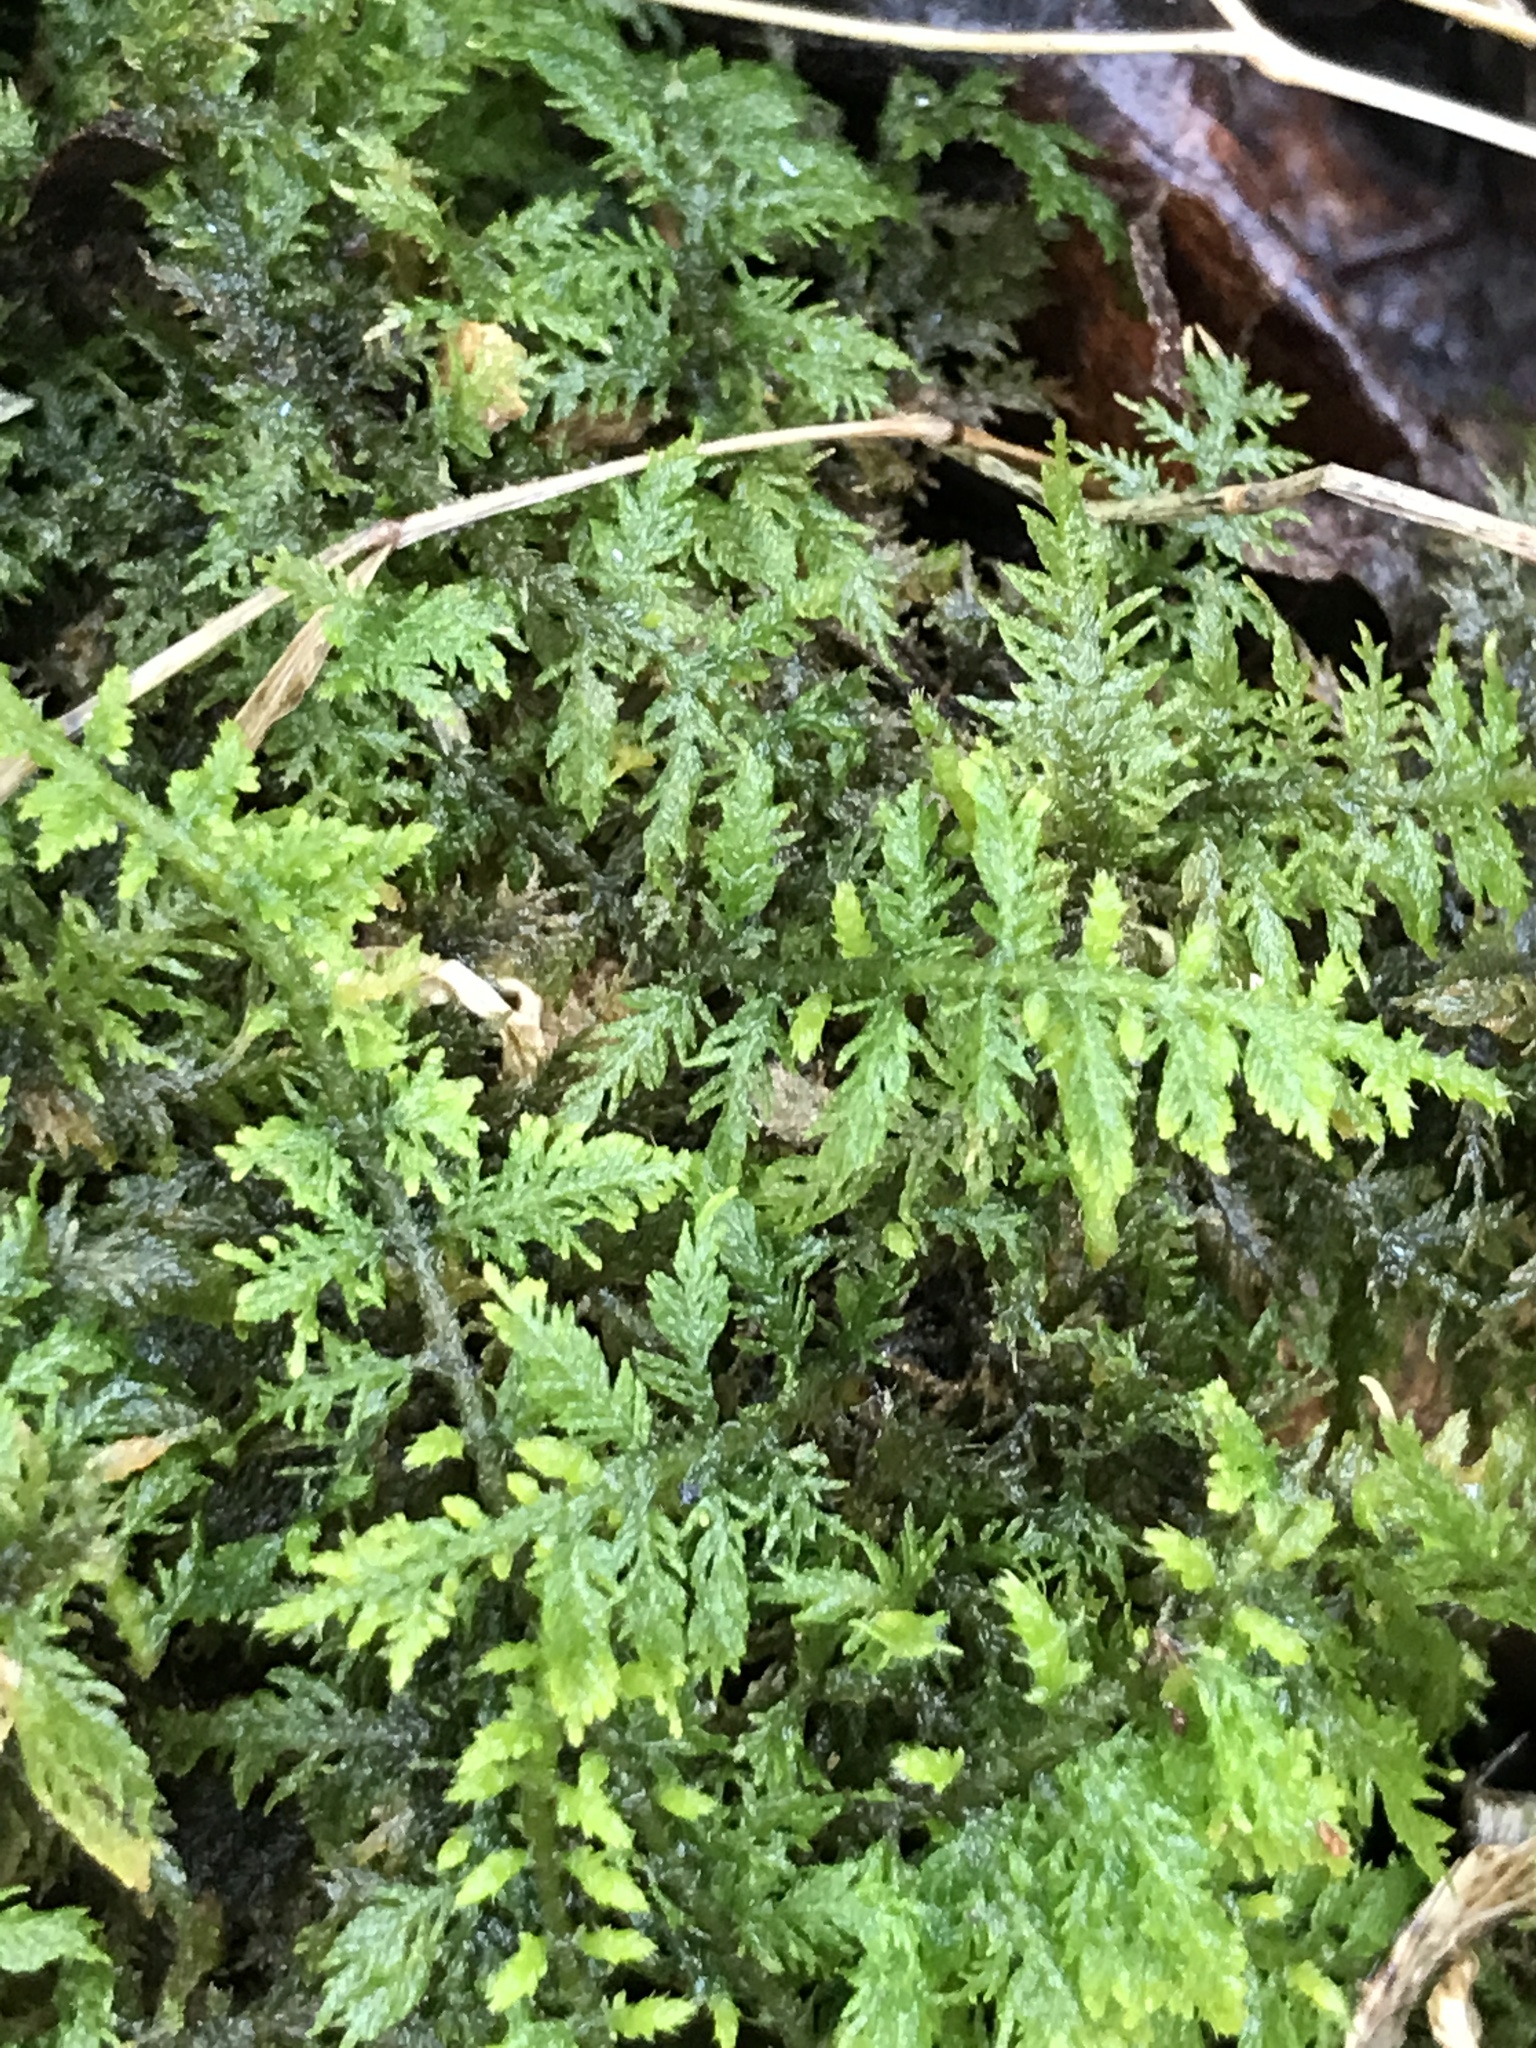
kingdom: Plantae
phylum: Bryophyta
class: Bryopsida
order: Hypnales
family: Thuidiaceae
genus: Thuidium
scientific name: Thuidium delicatulum
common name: Delicate fern moss
